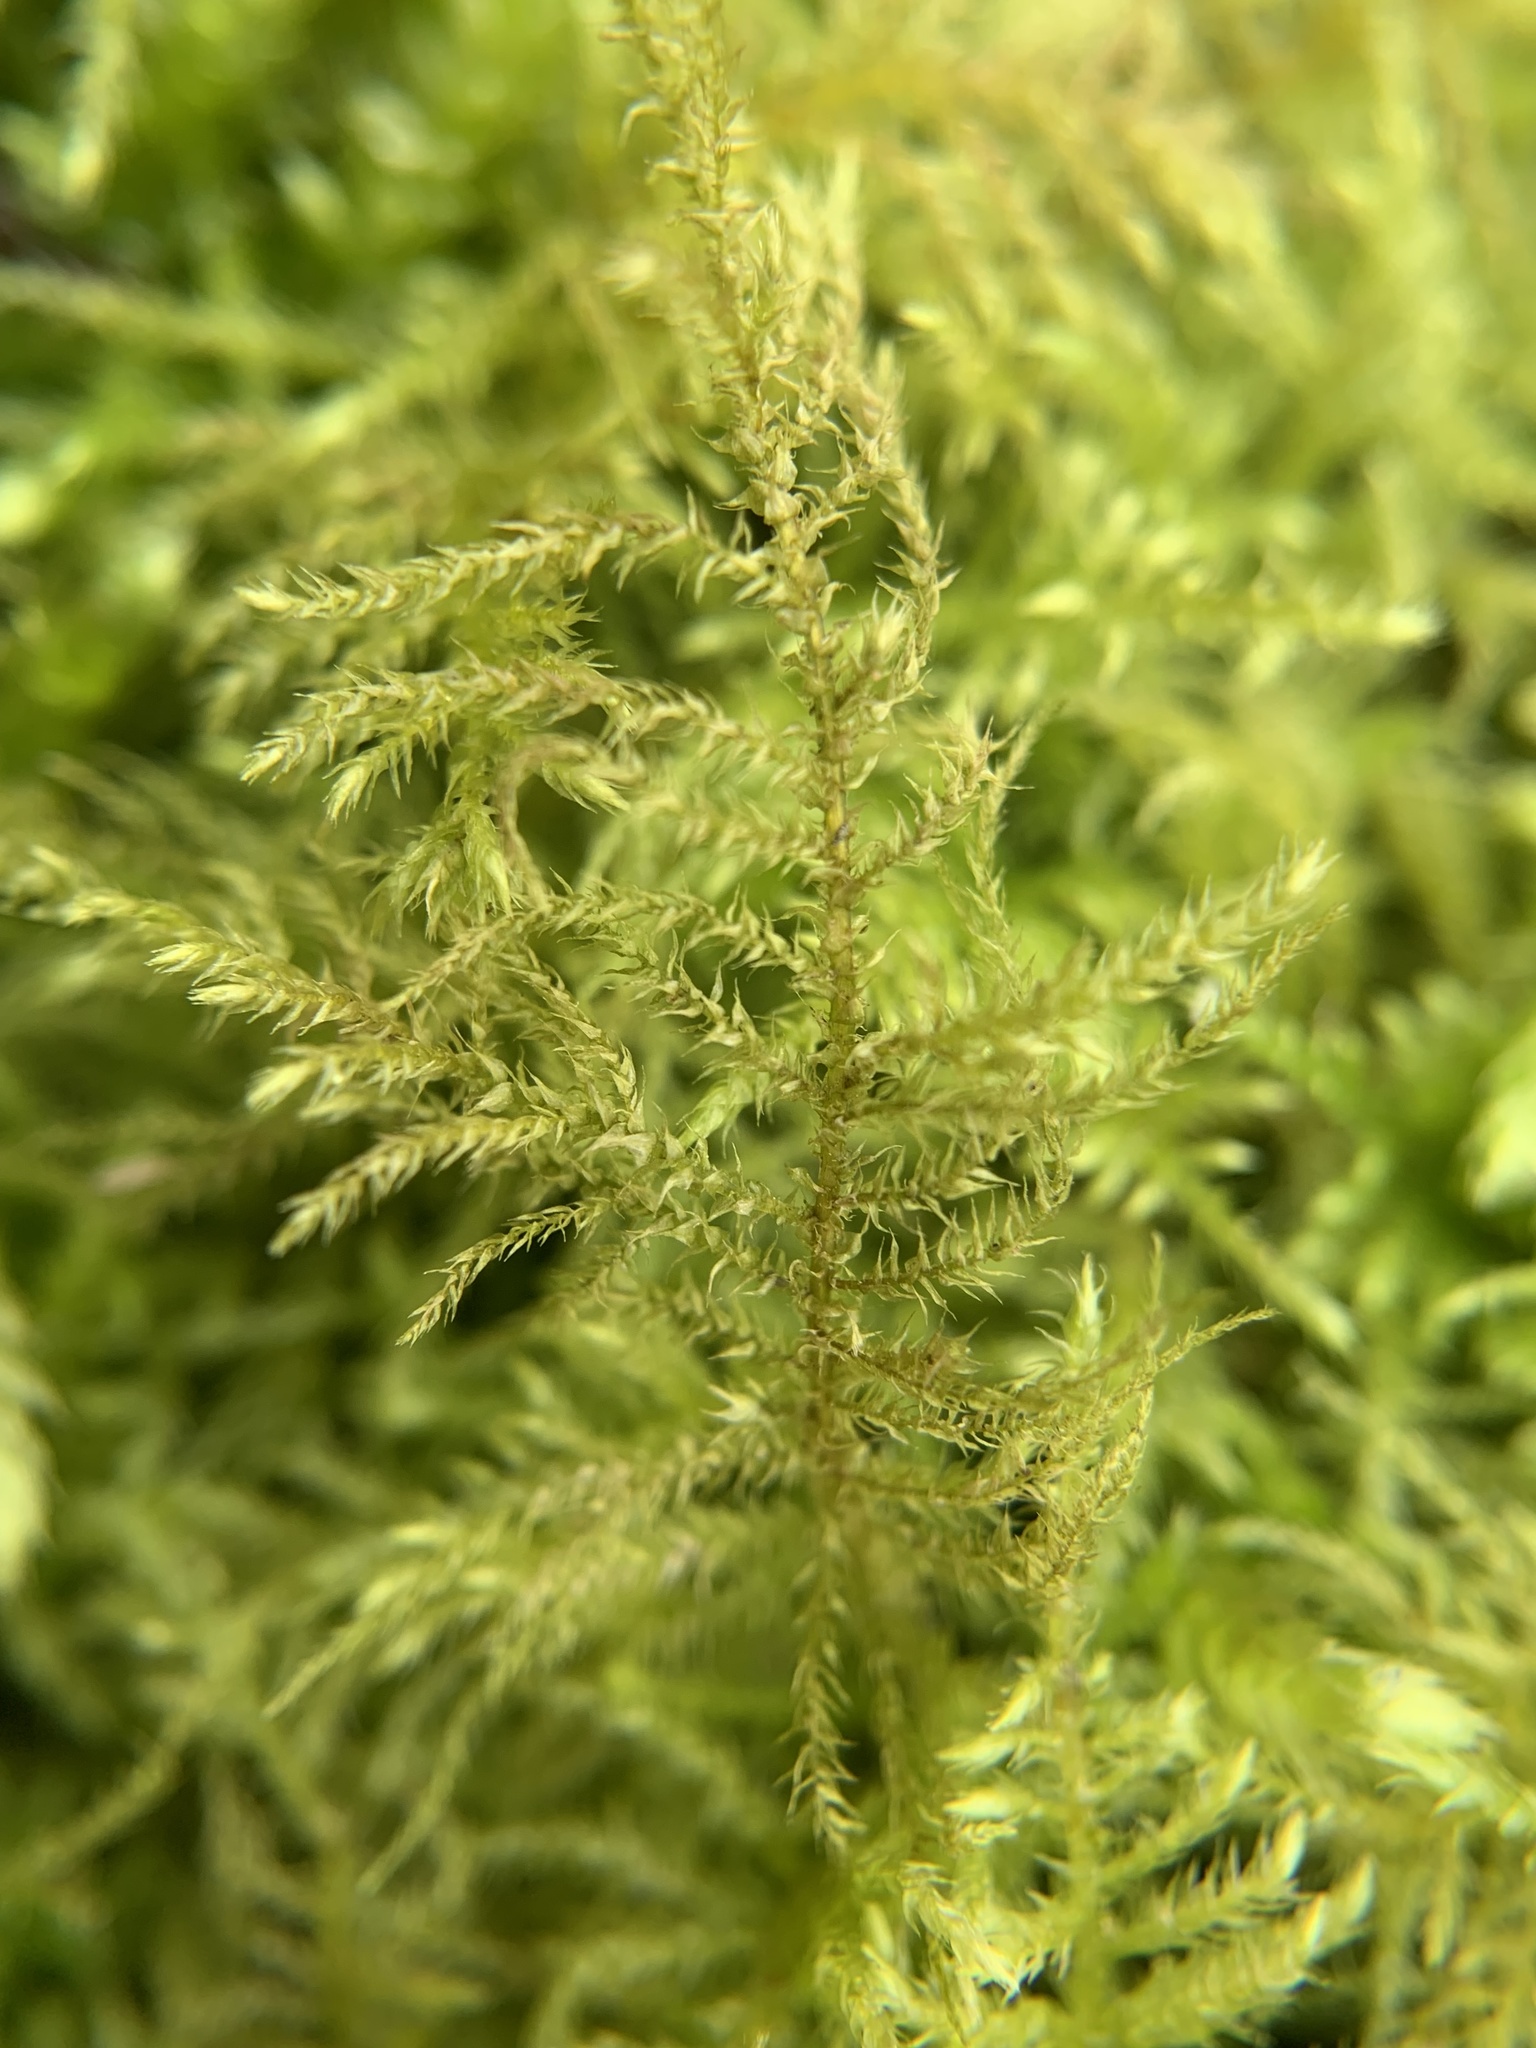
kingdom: Plantae
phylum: Bryophyta
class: Bryopsida
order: Hypnales
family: Brachytheciaceae
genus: Kindbergia
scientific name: Kindbergia praelonga
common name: Slender beaked moss
